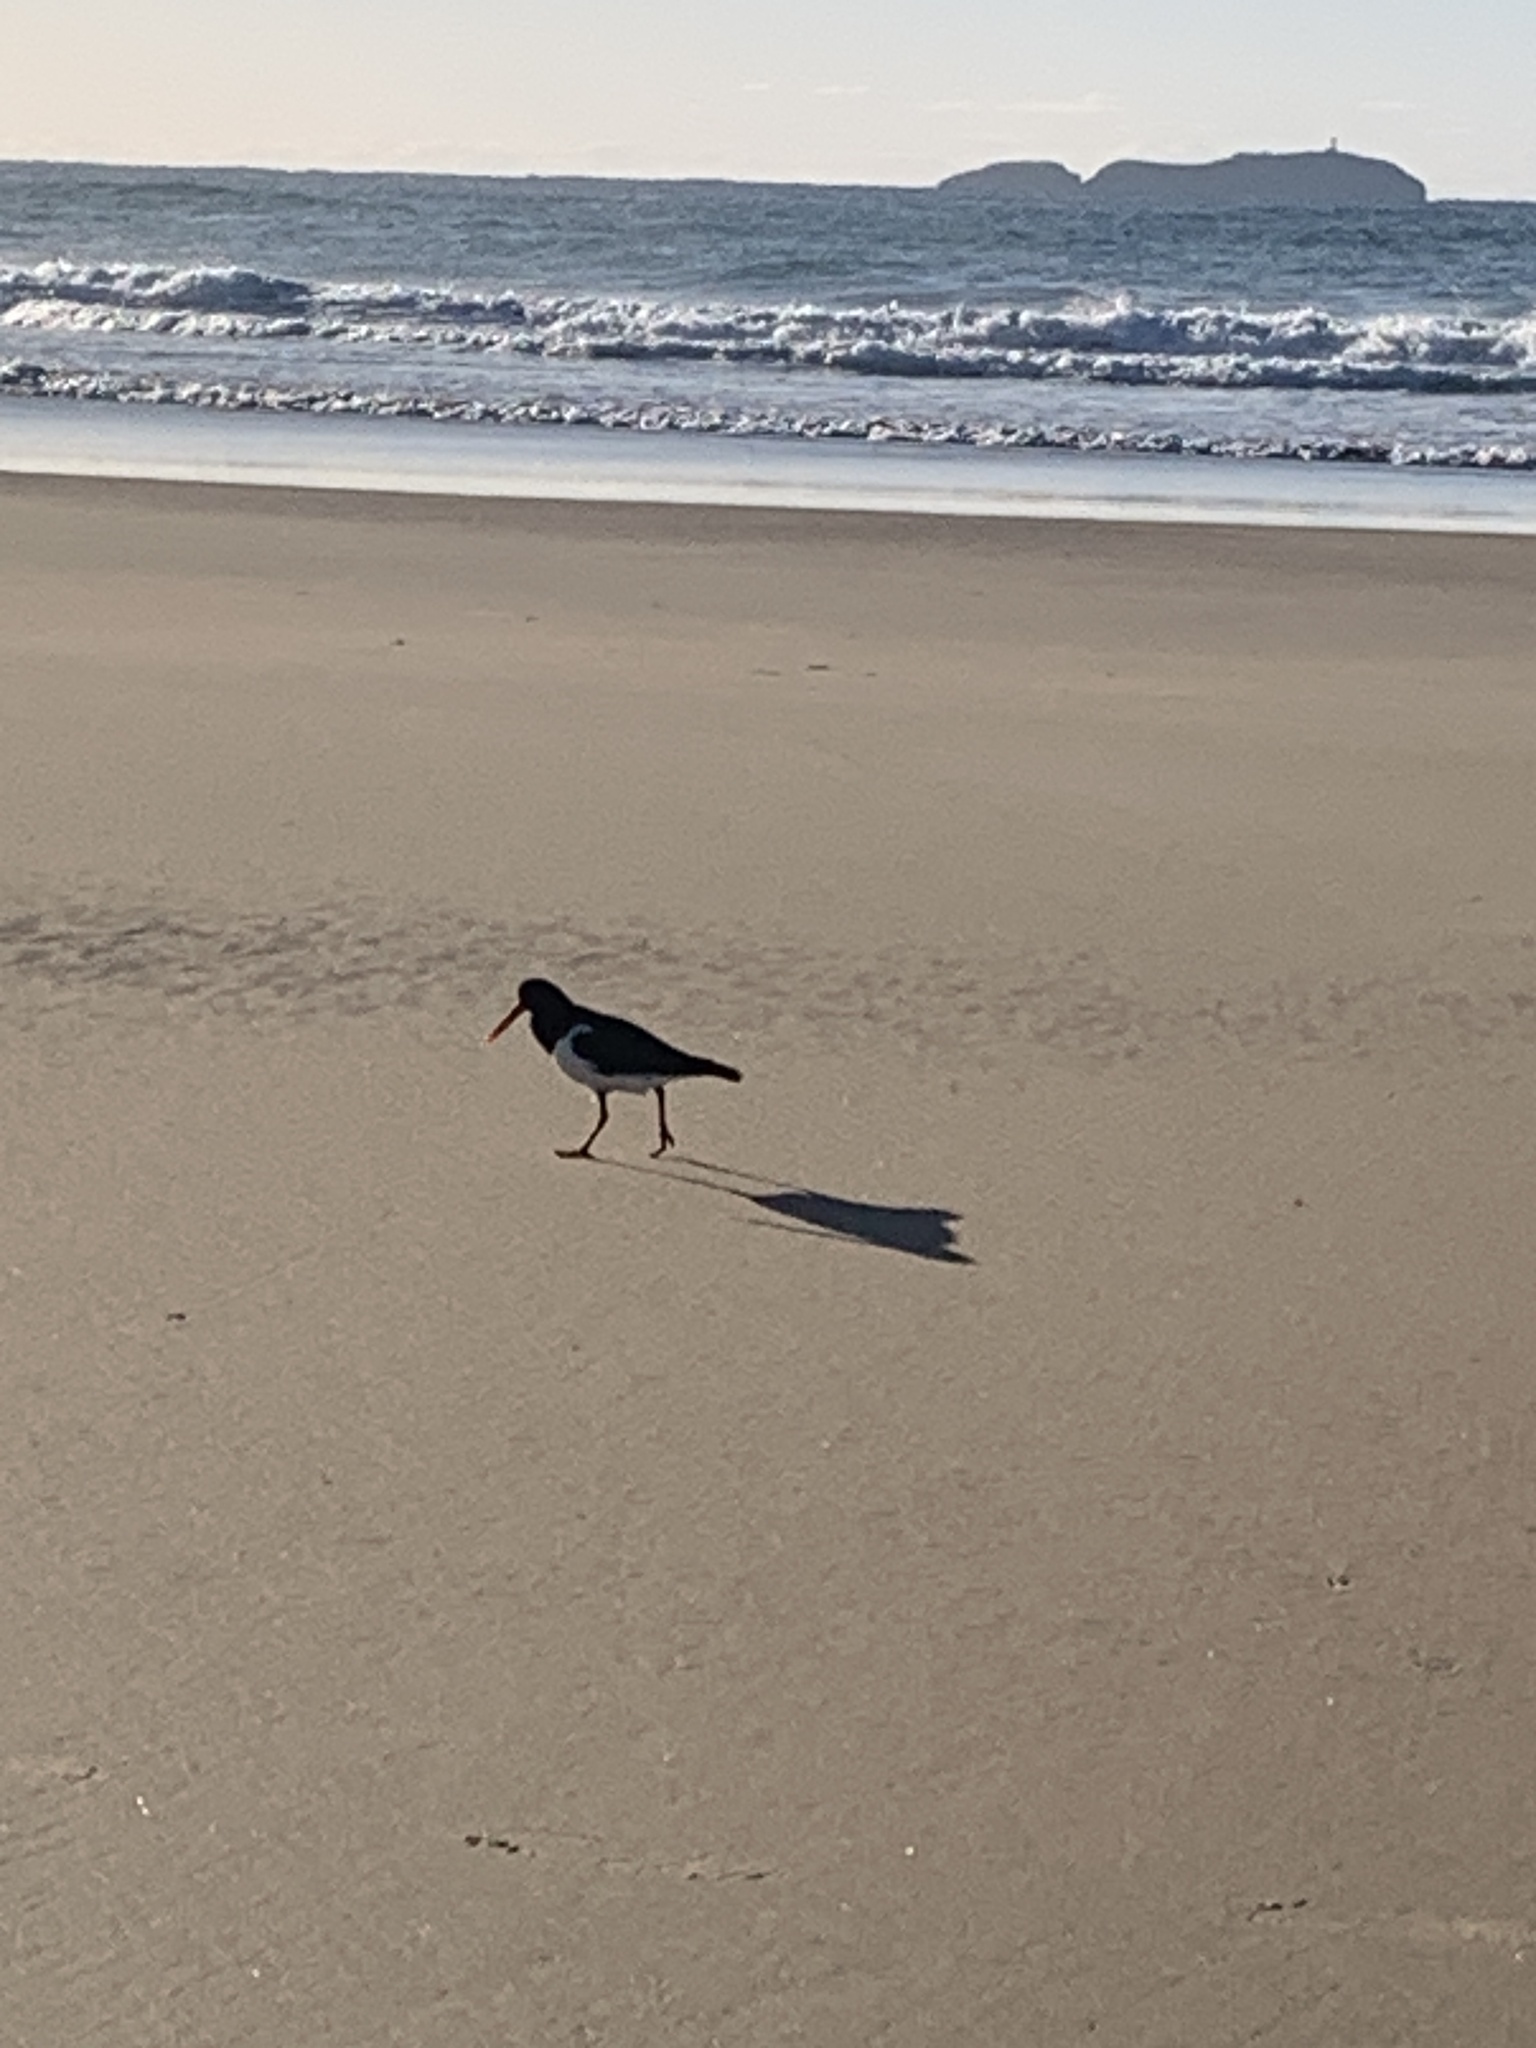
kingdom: Animalia
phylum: Chordata
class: Aves
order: Charadriiformes
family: Haematopodidae
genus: Haematopus
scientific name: Haematopus longirostris
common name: Pied oystercatcher
